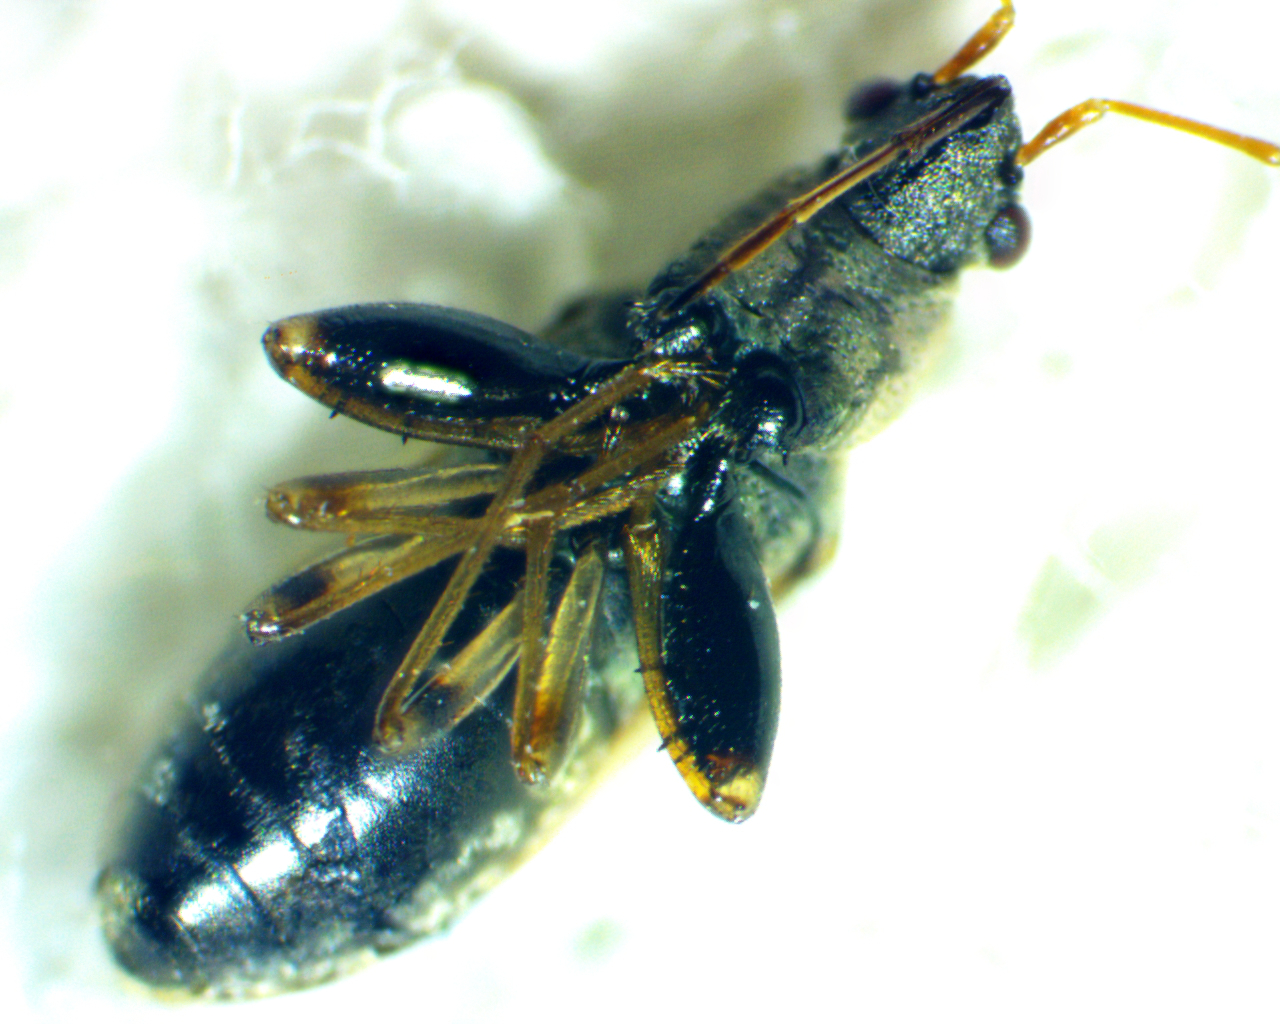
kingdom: Animalia
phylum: Arthropoda
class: Insecta
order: Hemiptera
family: Rhyparochromidae
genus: Pseudopachybrachius
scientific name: Pseudopachybrachius basalis
